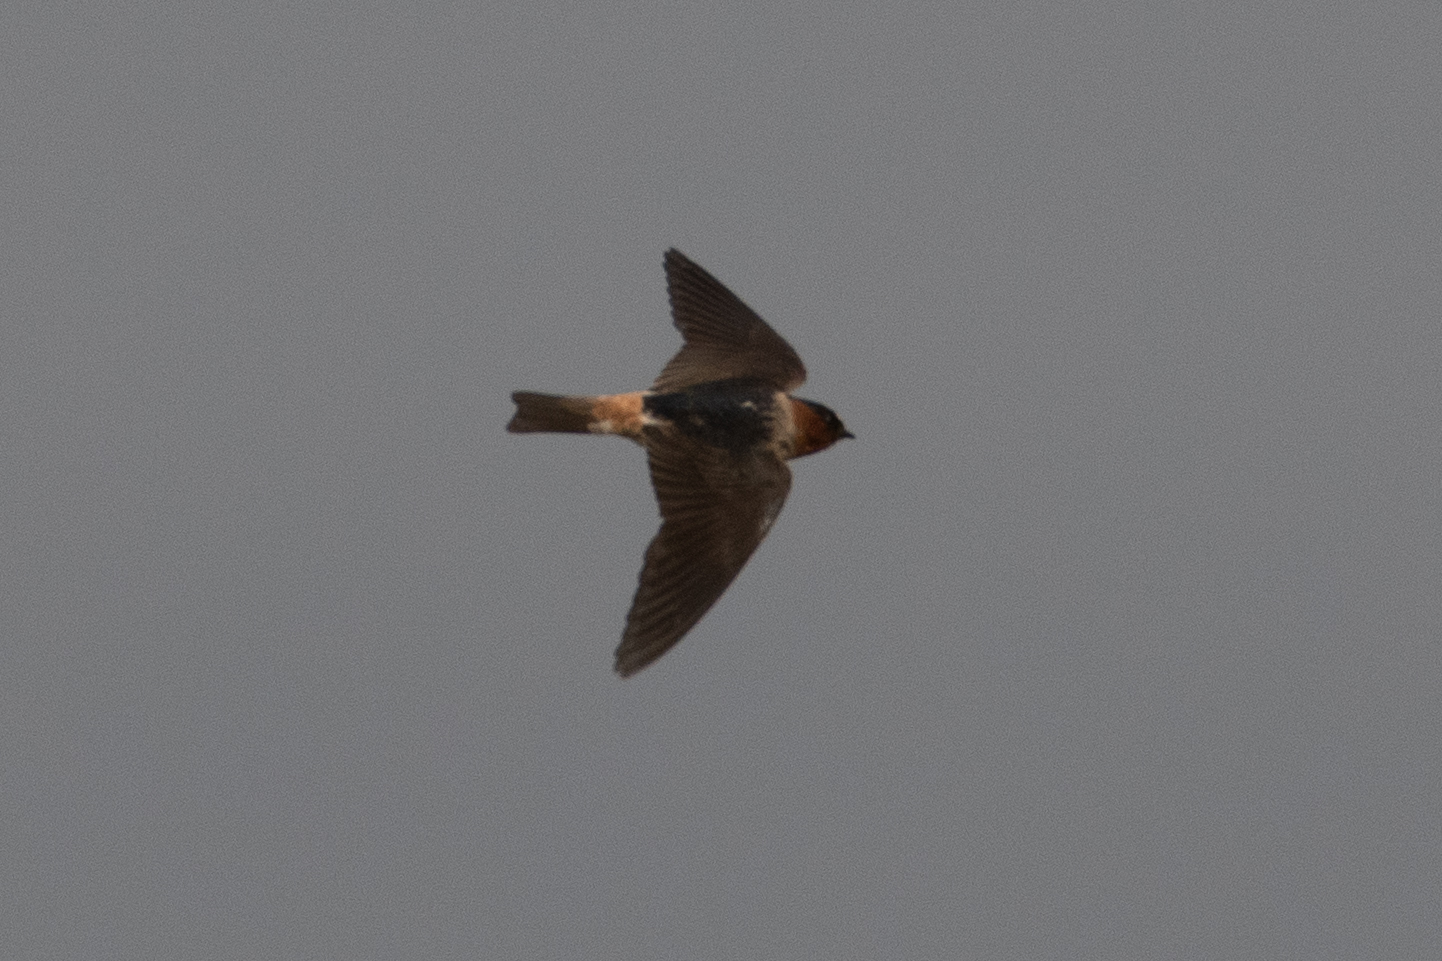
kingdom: Animalia
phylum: Chordata
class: Aves
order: Passeriformes
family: Hirundinidae
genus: Petrochelidon
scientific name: Petrochelidon pyrrhonota
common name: American cliff swallow
